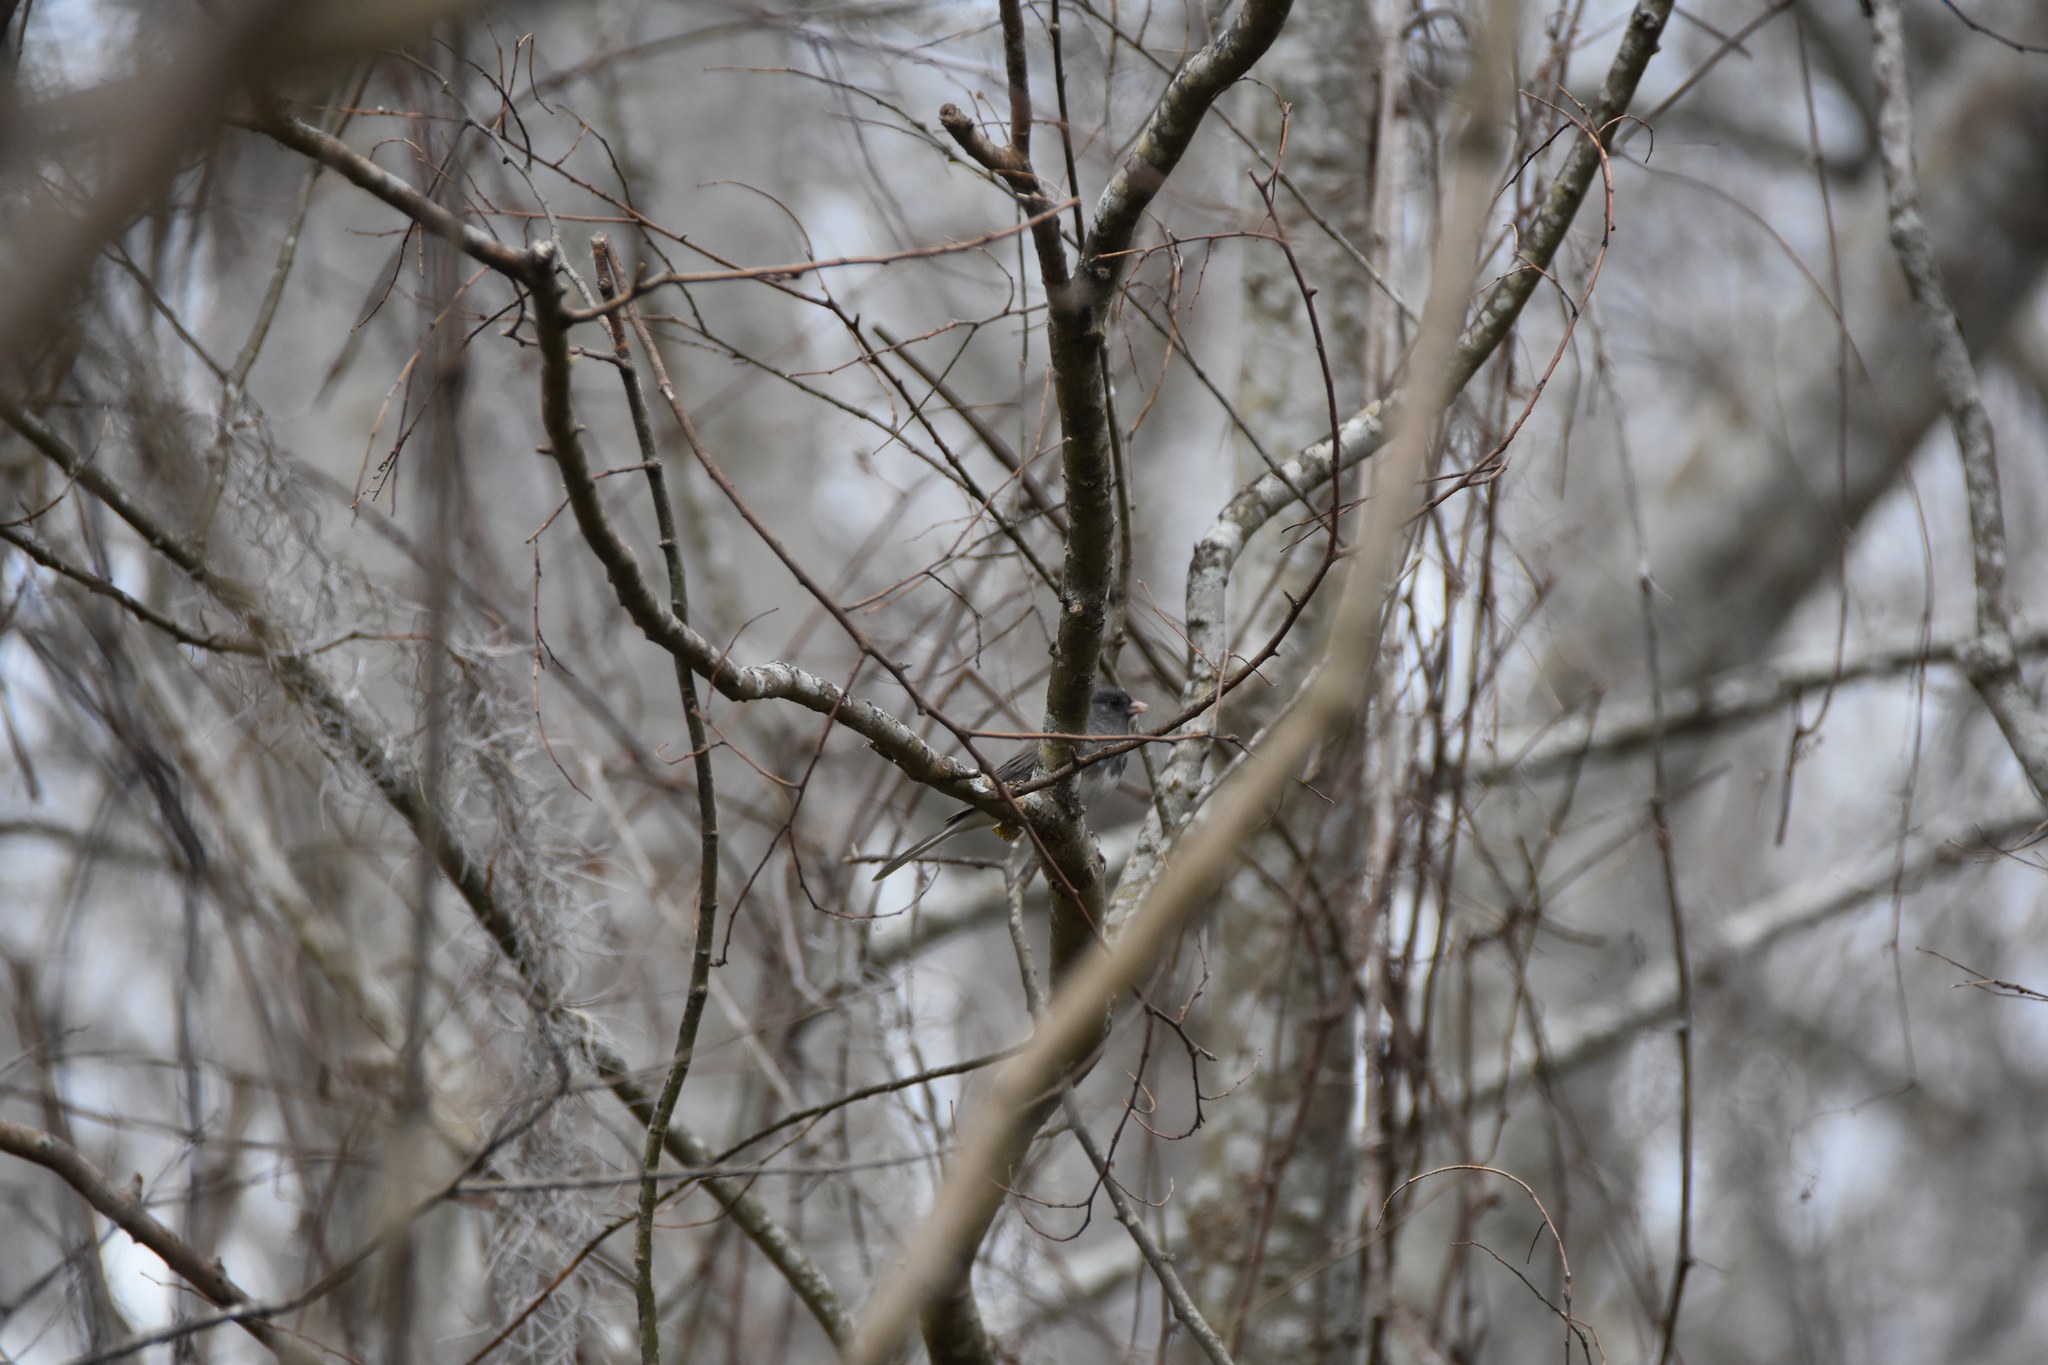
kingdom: Animalia
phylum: Chordata
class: Aves
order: Passeriformes
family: Passerellidae
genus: Junco
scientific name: Junco hyemalis
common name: Dark-eyed junco
